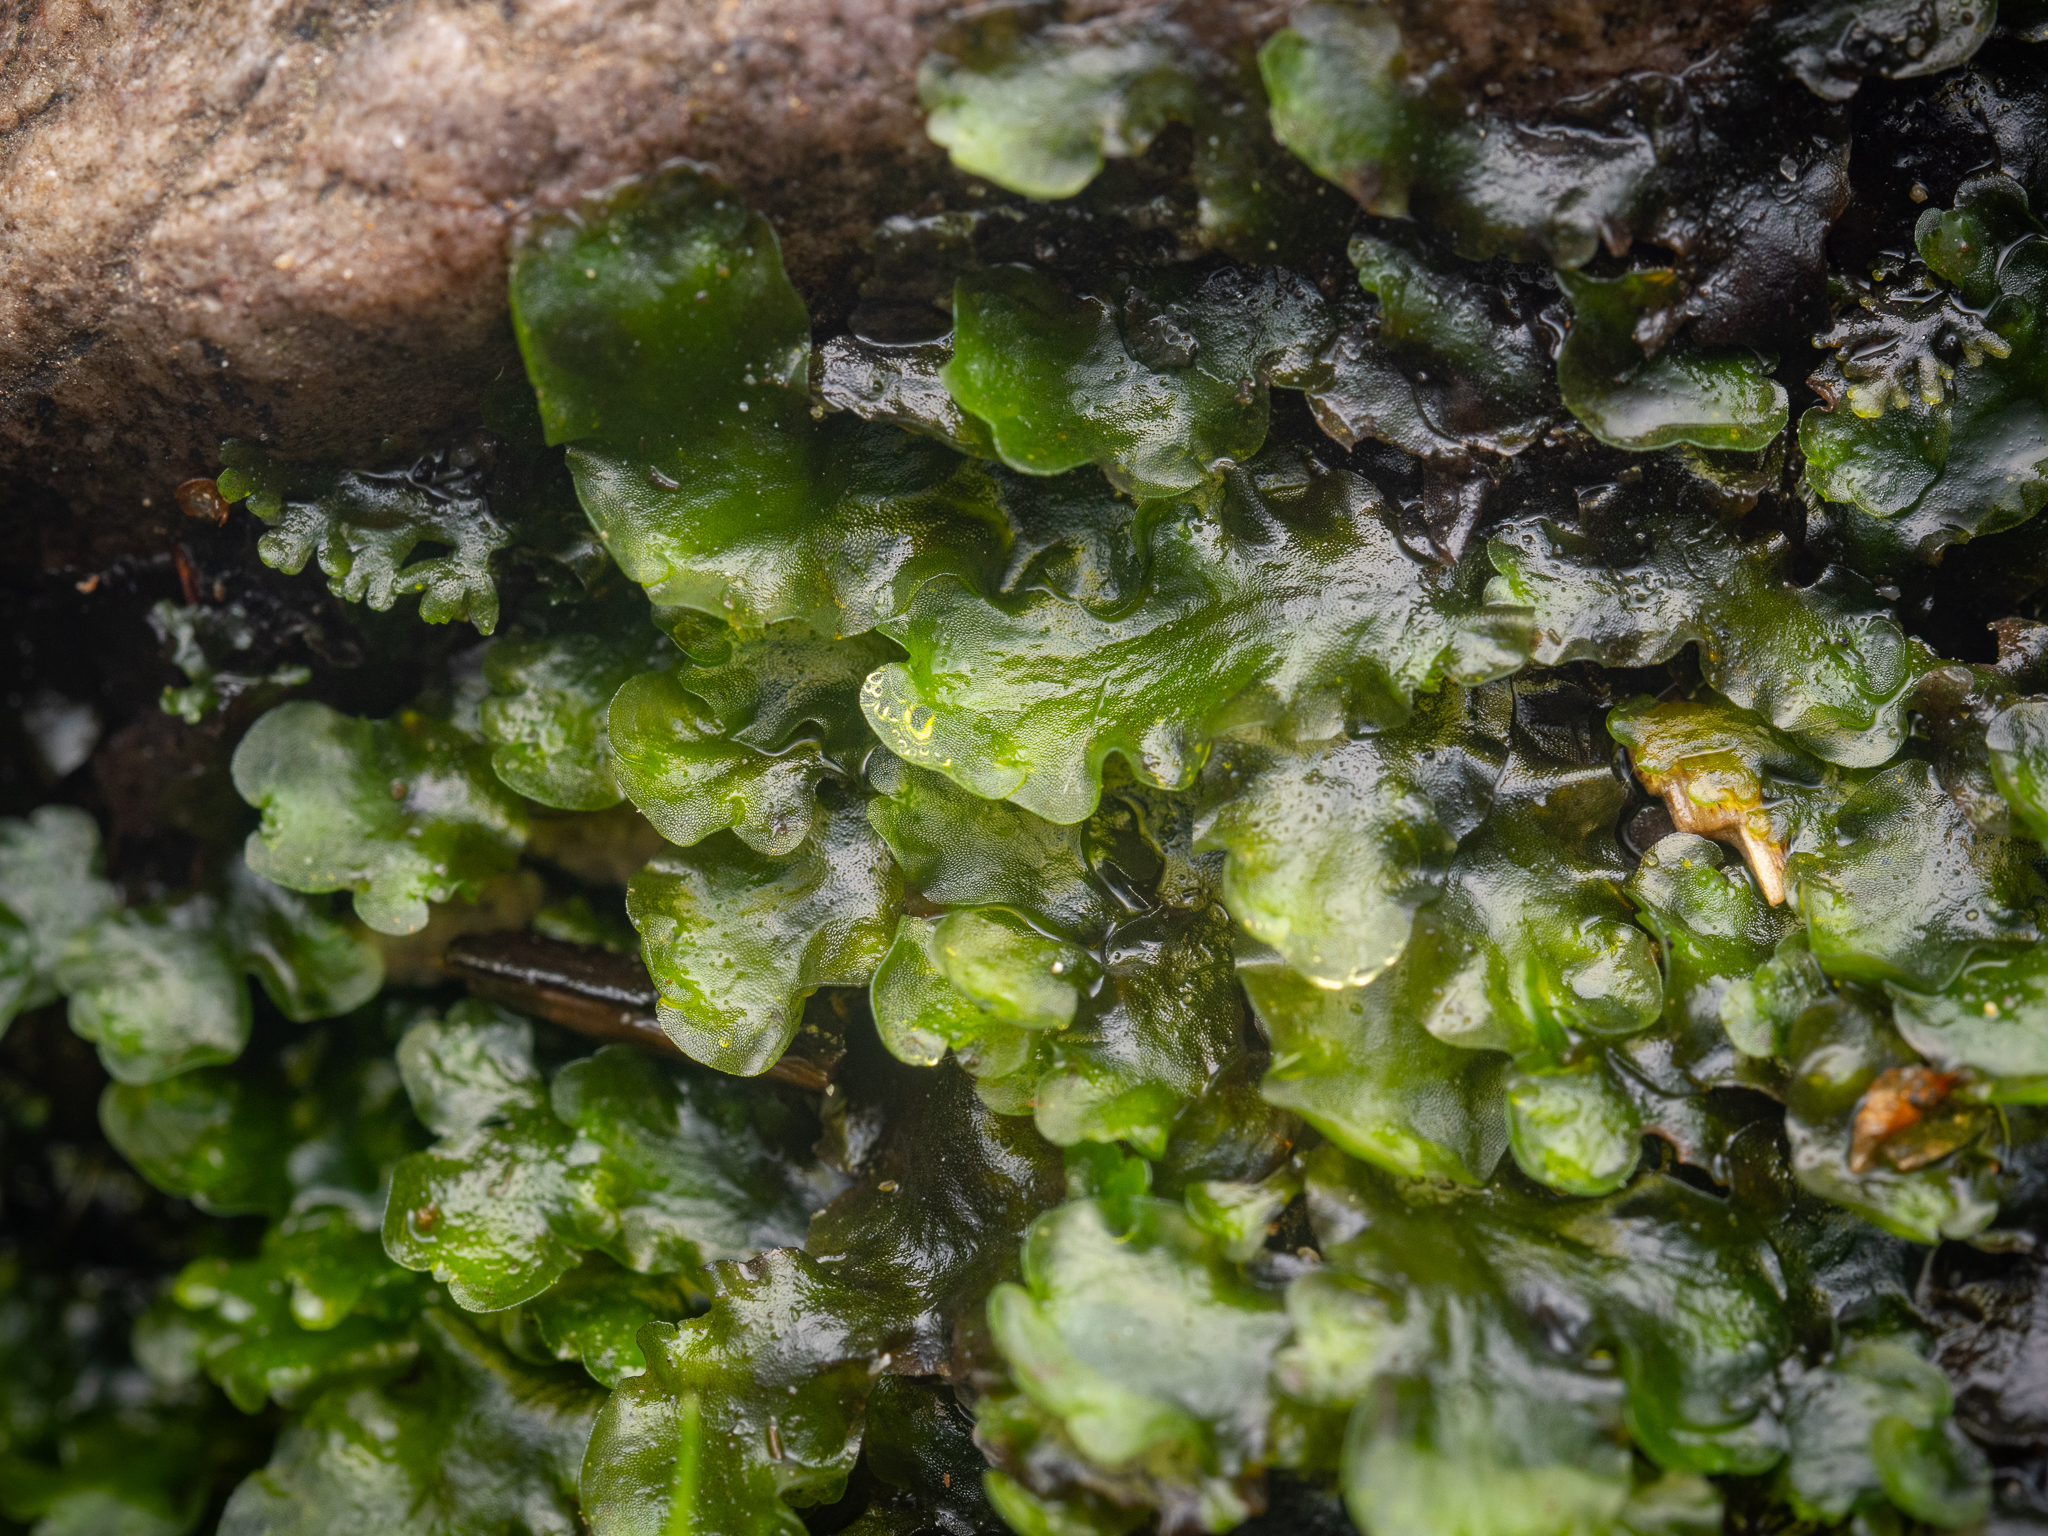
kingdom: Plantae
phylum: Marchantiophyta
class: Jungermanniopsida
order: Pelliales
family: Pelliaceae
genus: Pellia
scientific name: Pellia epiphylla
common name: Common pellia
